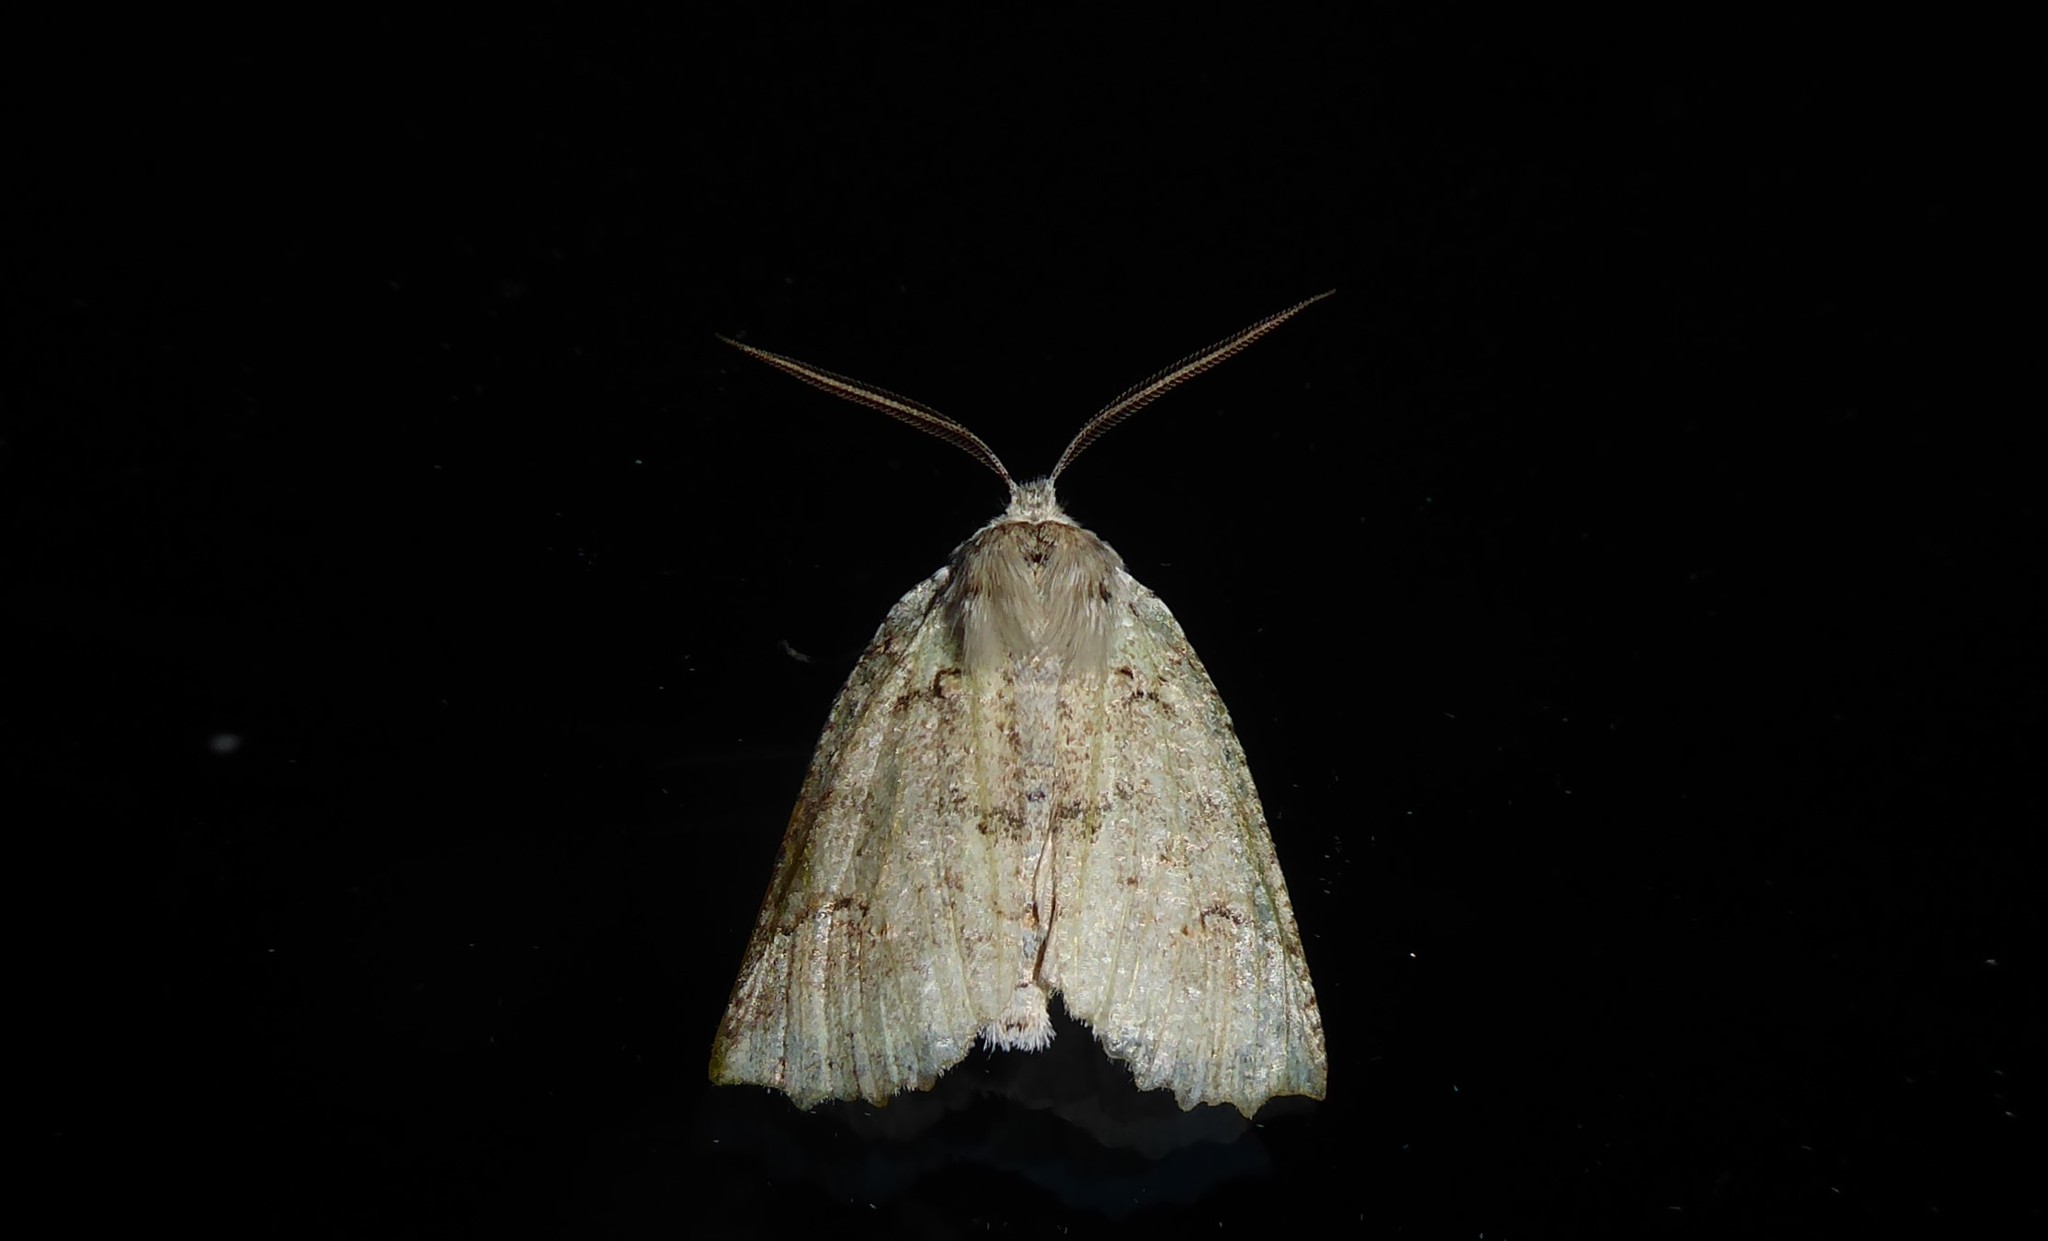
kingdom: Animalia
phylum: Arthropoda
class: Insecta
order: Lepidoptera
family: Geometridae
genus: Declana
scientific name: Declana floccosa
